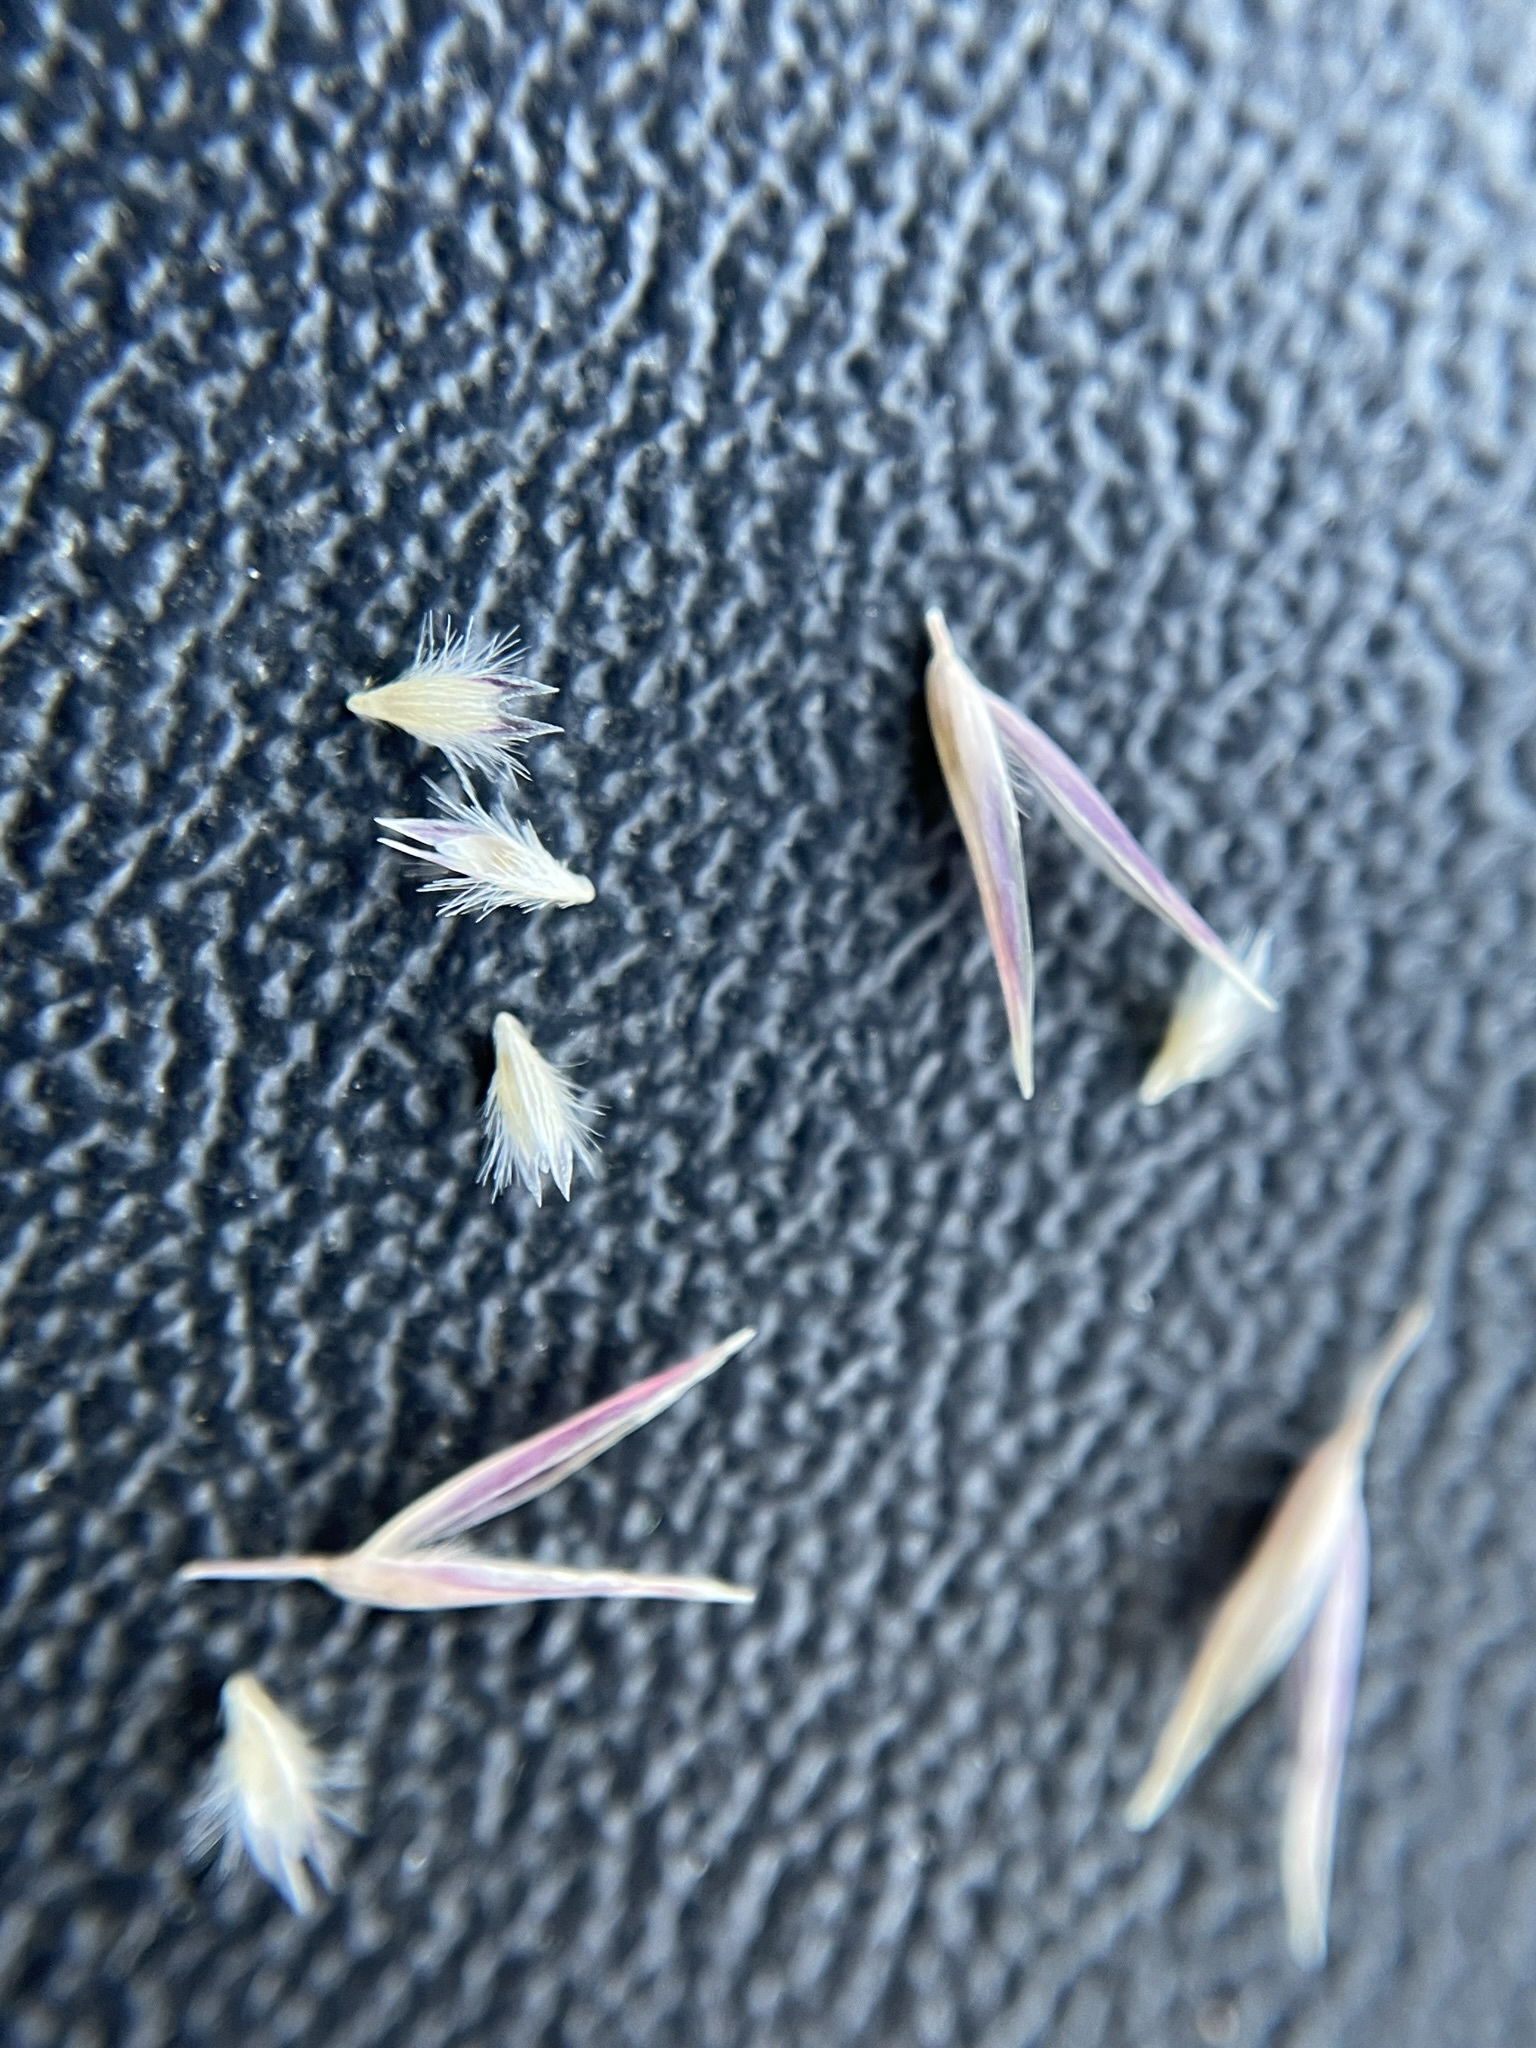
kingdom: Plantae
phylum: Tracheophyta
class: Liliopsida
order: Poales
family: Poaceae
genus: Schismus
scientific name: Schismus arabicus
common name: Arabian schismus
